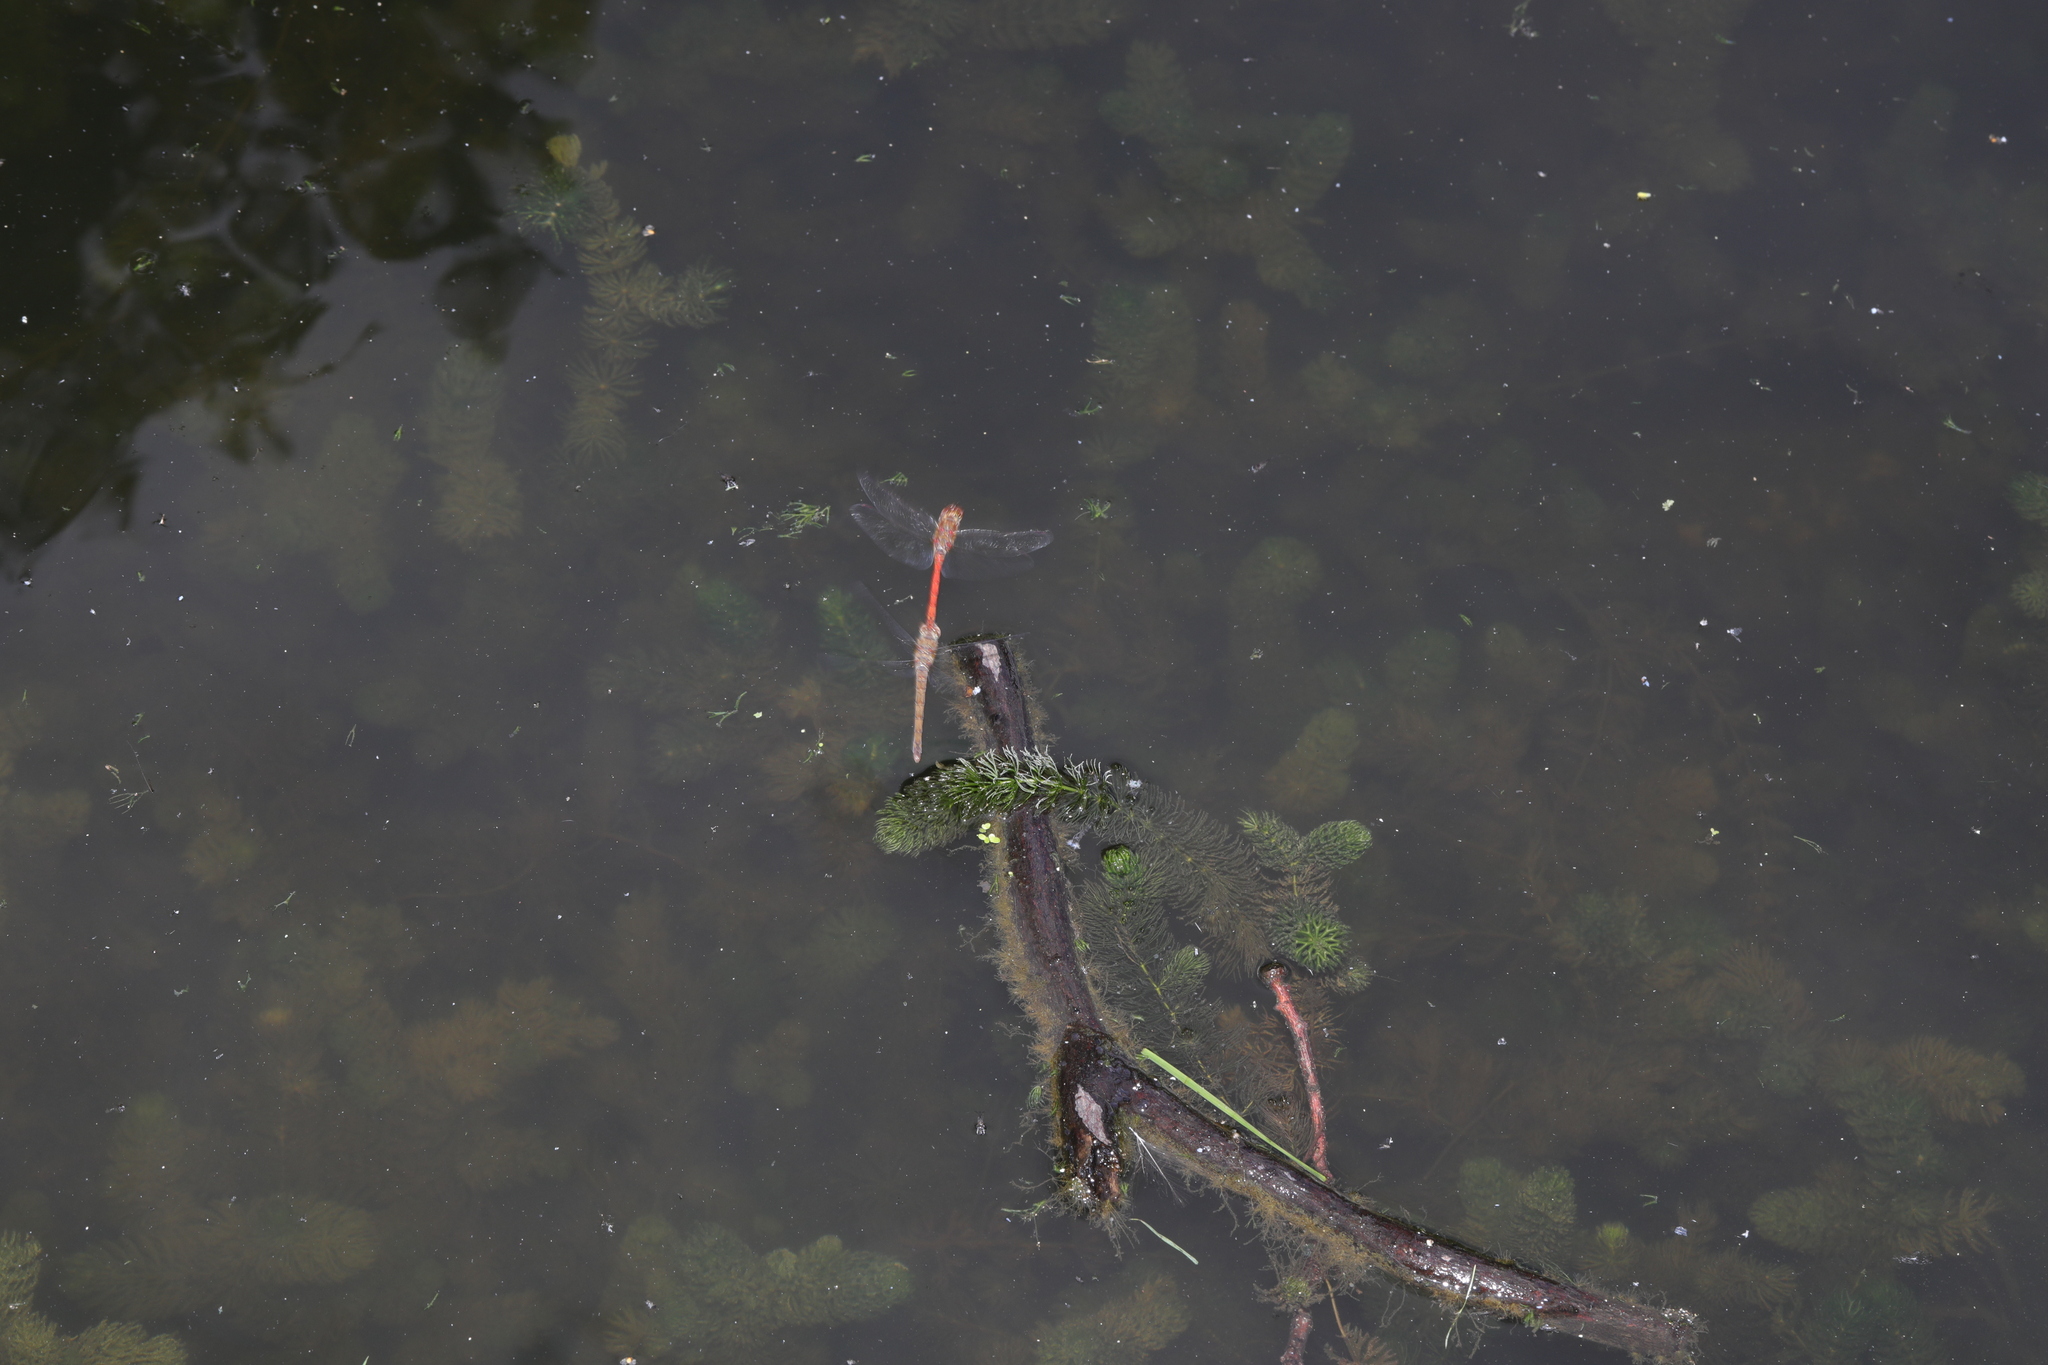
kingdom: Animalia
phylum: Arthropoda
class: Insecta
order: Odonata
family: Libellulidae
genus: Sympetrum
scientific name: Sympetrum striolatum
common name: Common darter
